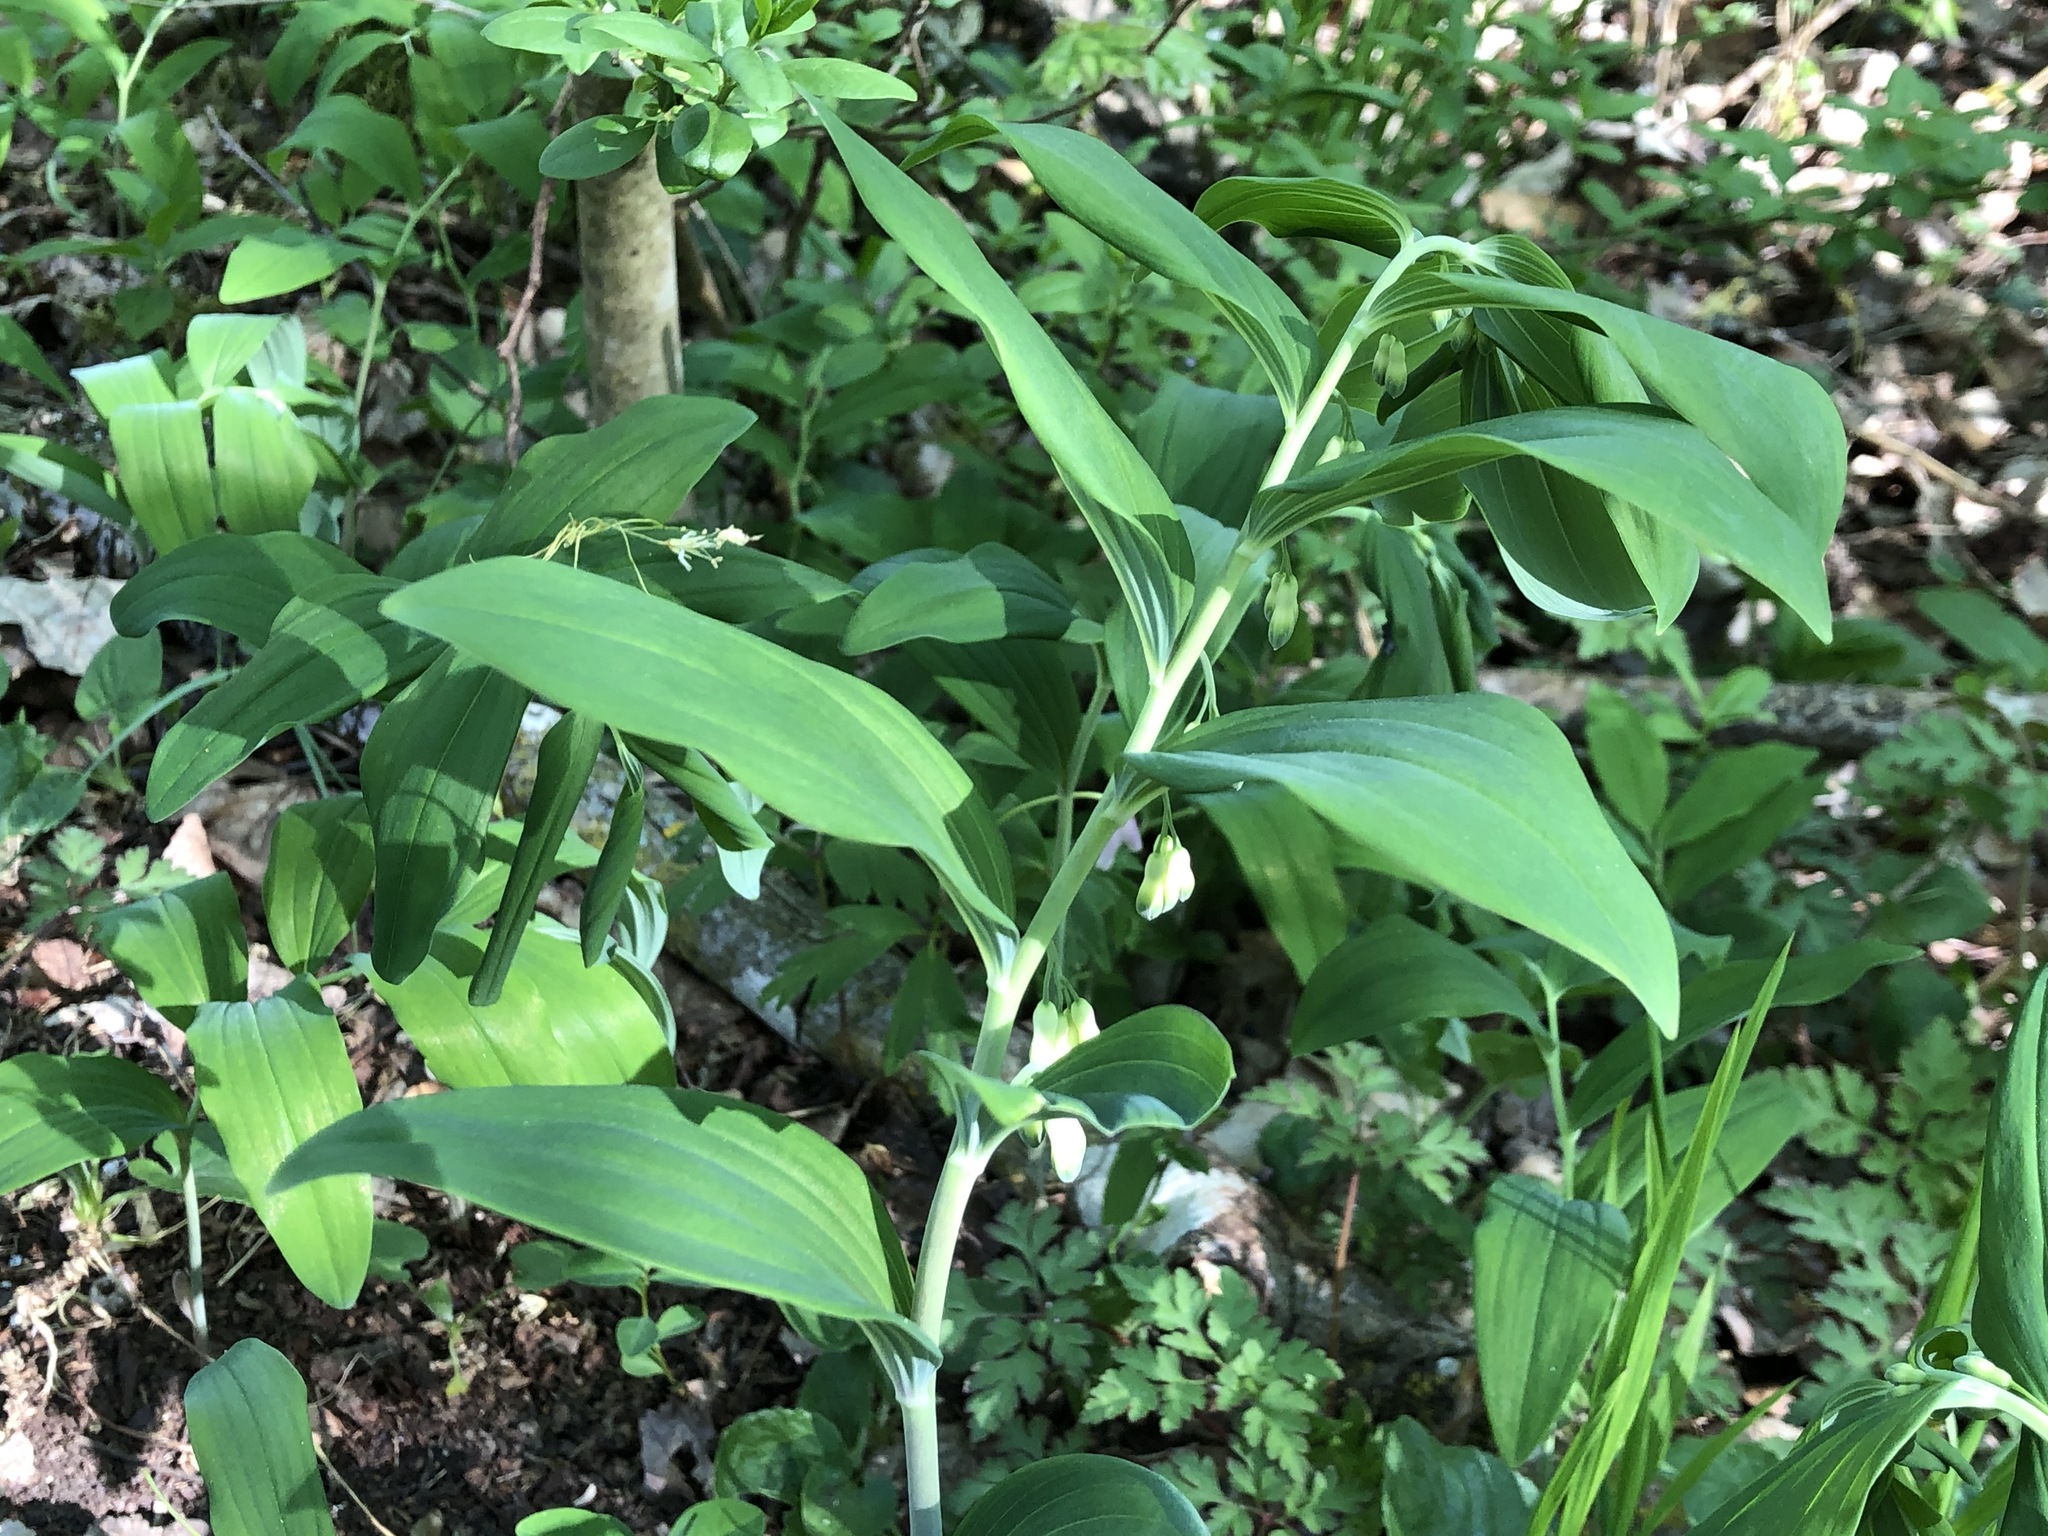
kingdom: Plantae
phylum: Tracheophyta
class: Liliopsida
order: Asparagales
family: Asparagaceae
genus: Polygonatum
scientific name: Polygonatum multiflorum
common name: Solomon's-seal
